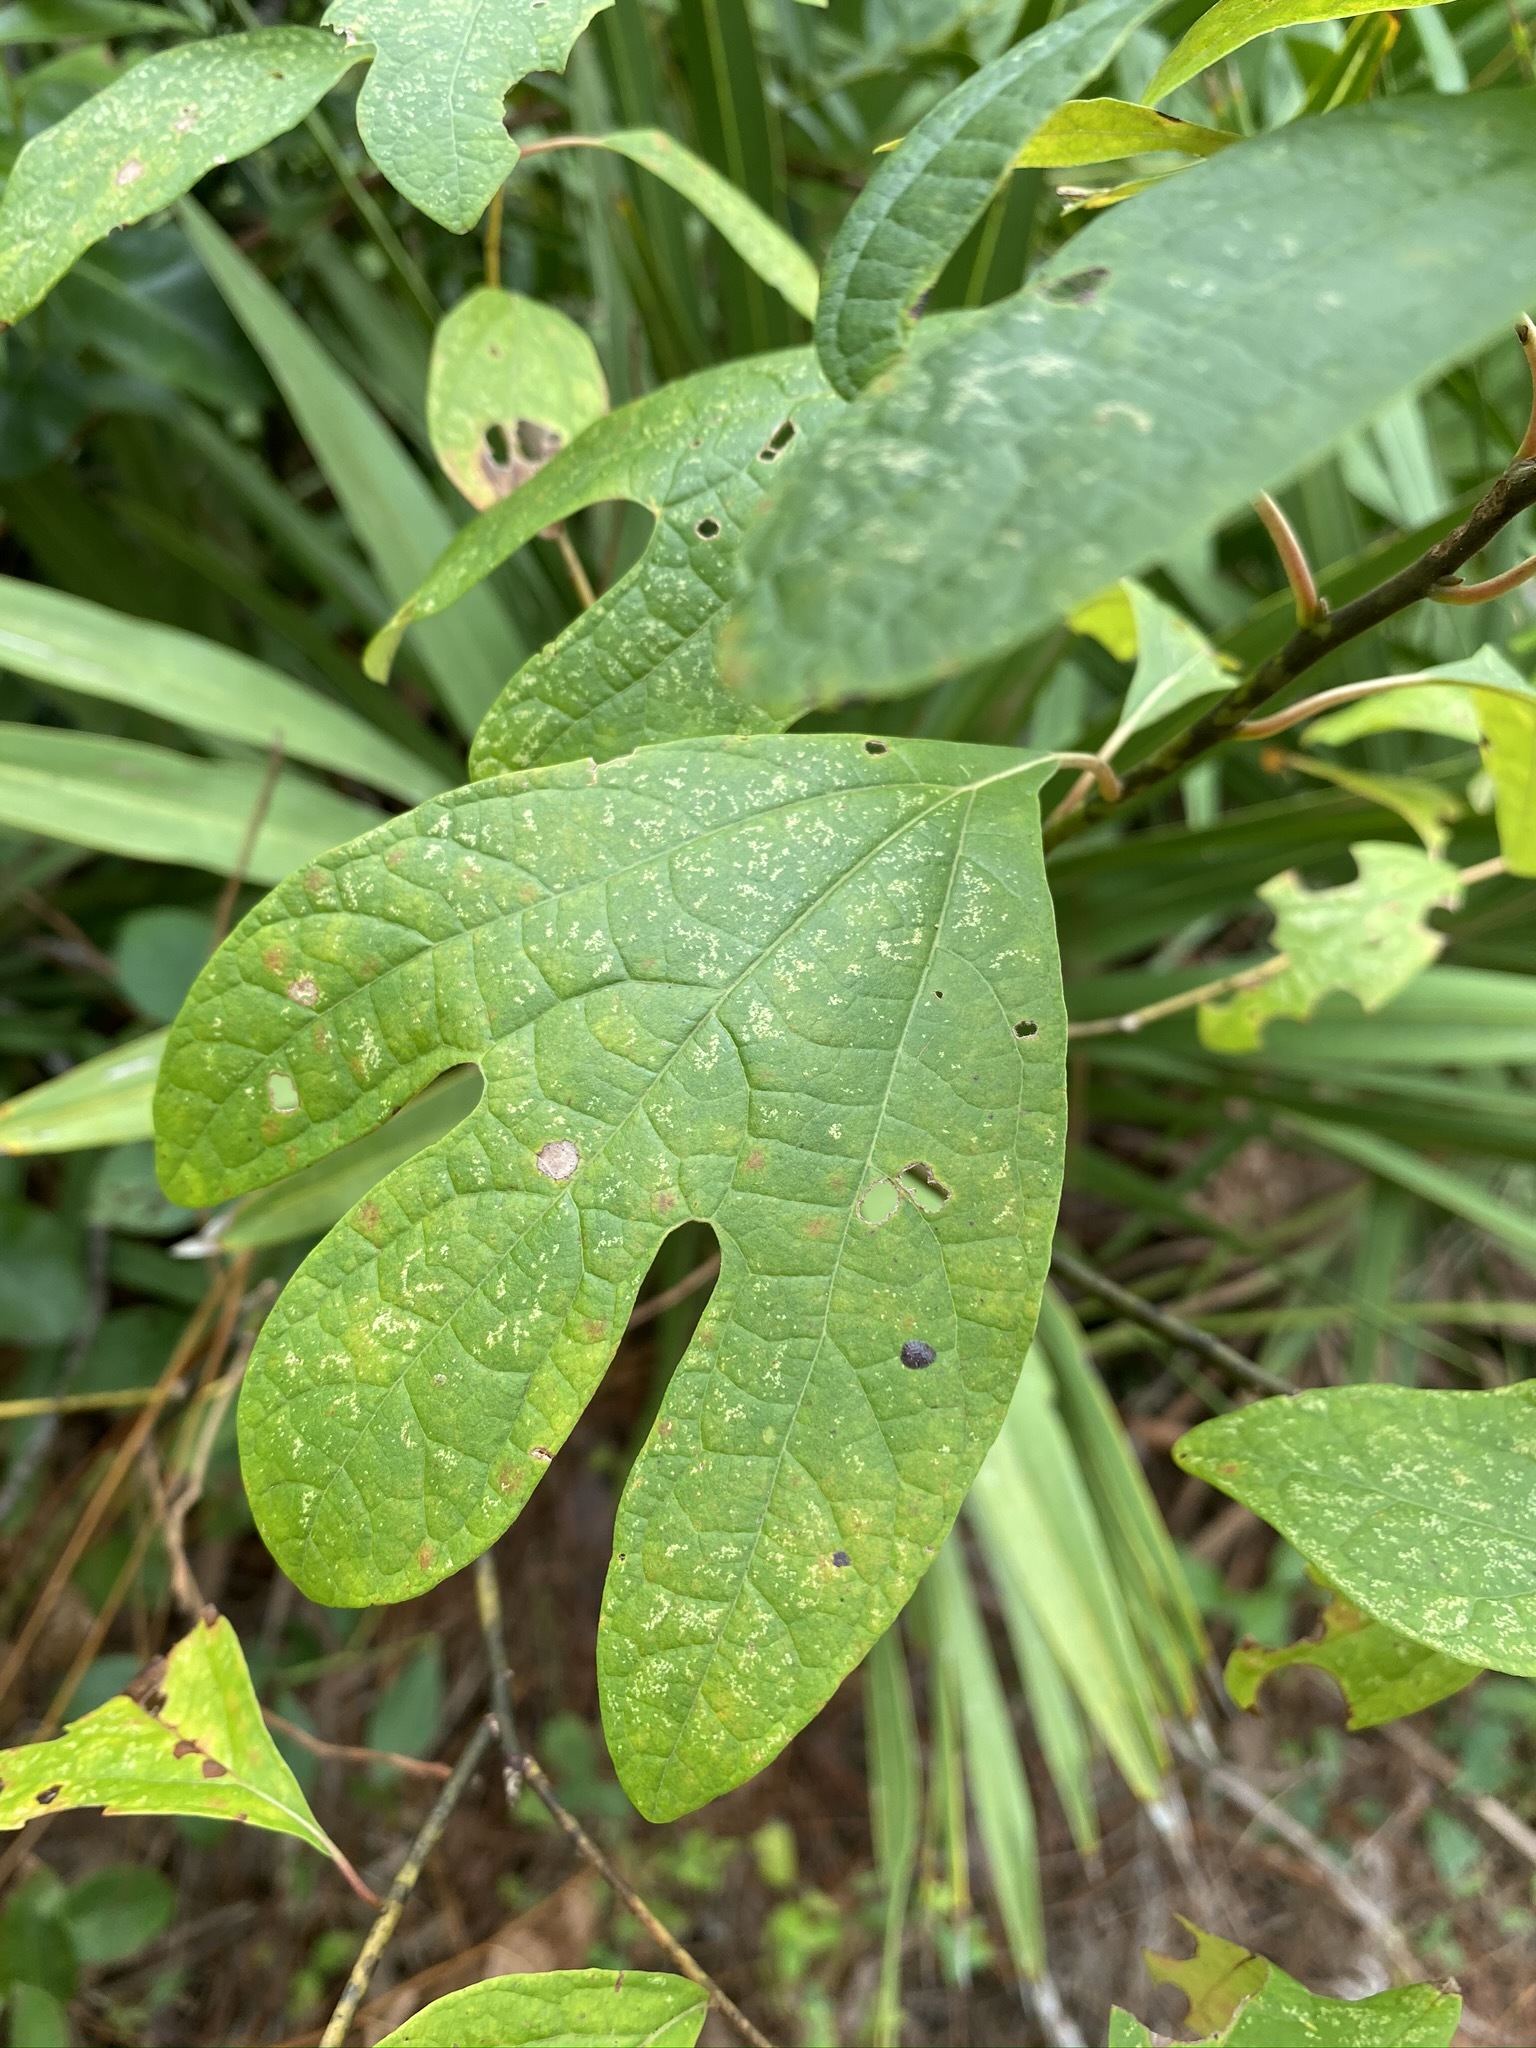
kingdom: Plantae
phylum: Tracheophyta
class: Magnoliopsida
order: Laurales
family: Lauraceae
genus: Sassafras
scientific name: Sassafras albidum
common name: Sassafras
